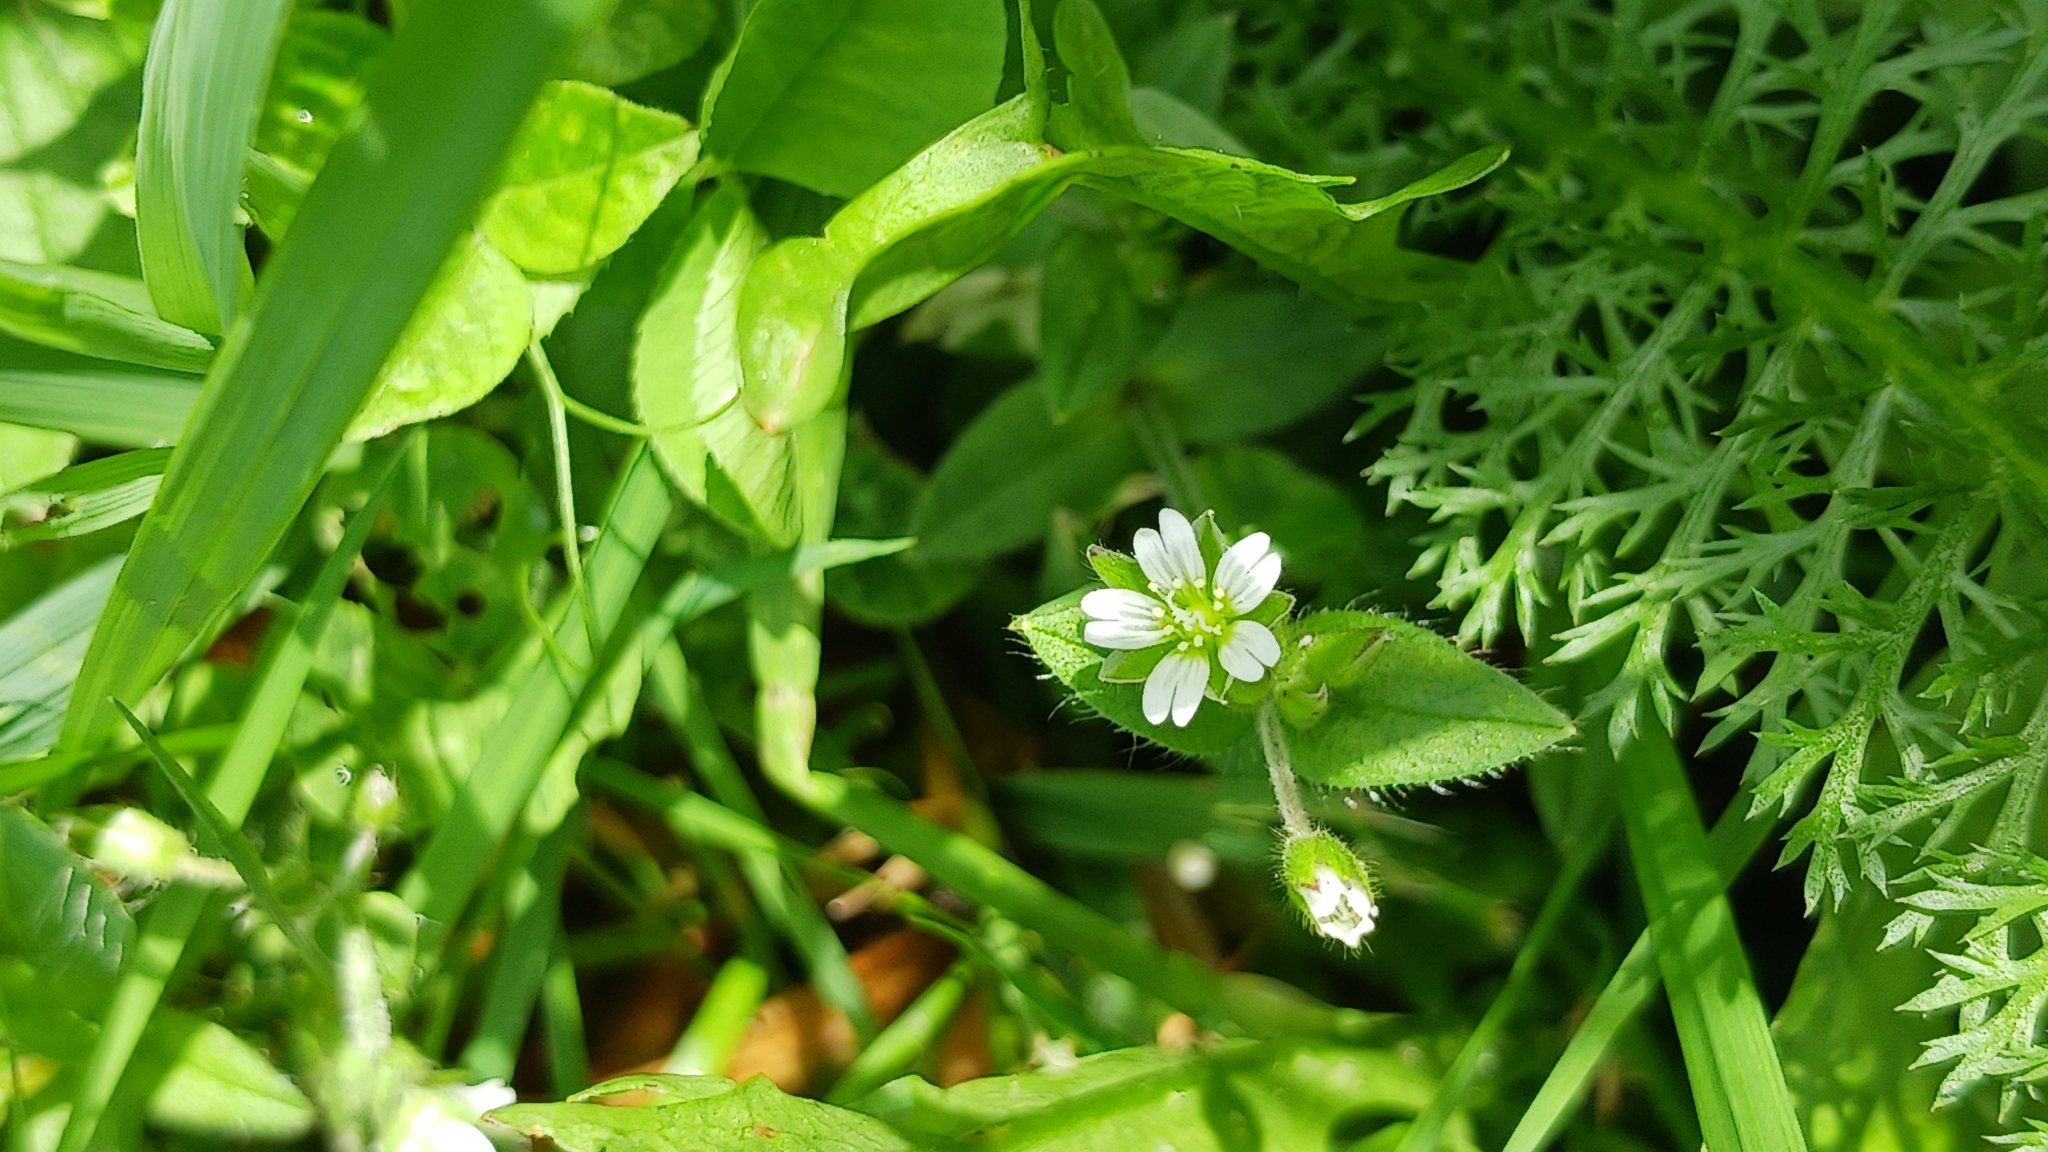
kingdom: Plantae
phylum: Tracheophyta
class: Magnoliopsida
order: Caryophyllales
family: Caryophyllaceae
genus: Cerastium
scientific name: Cerastium fontanum
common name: Common mouse-ear
